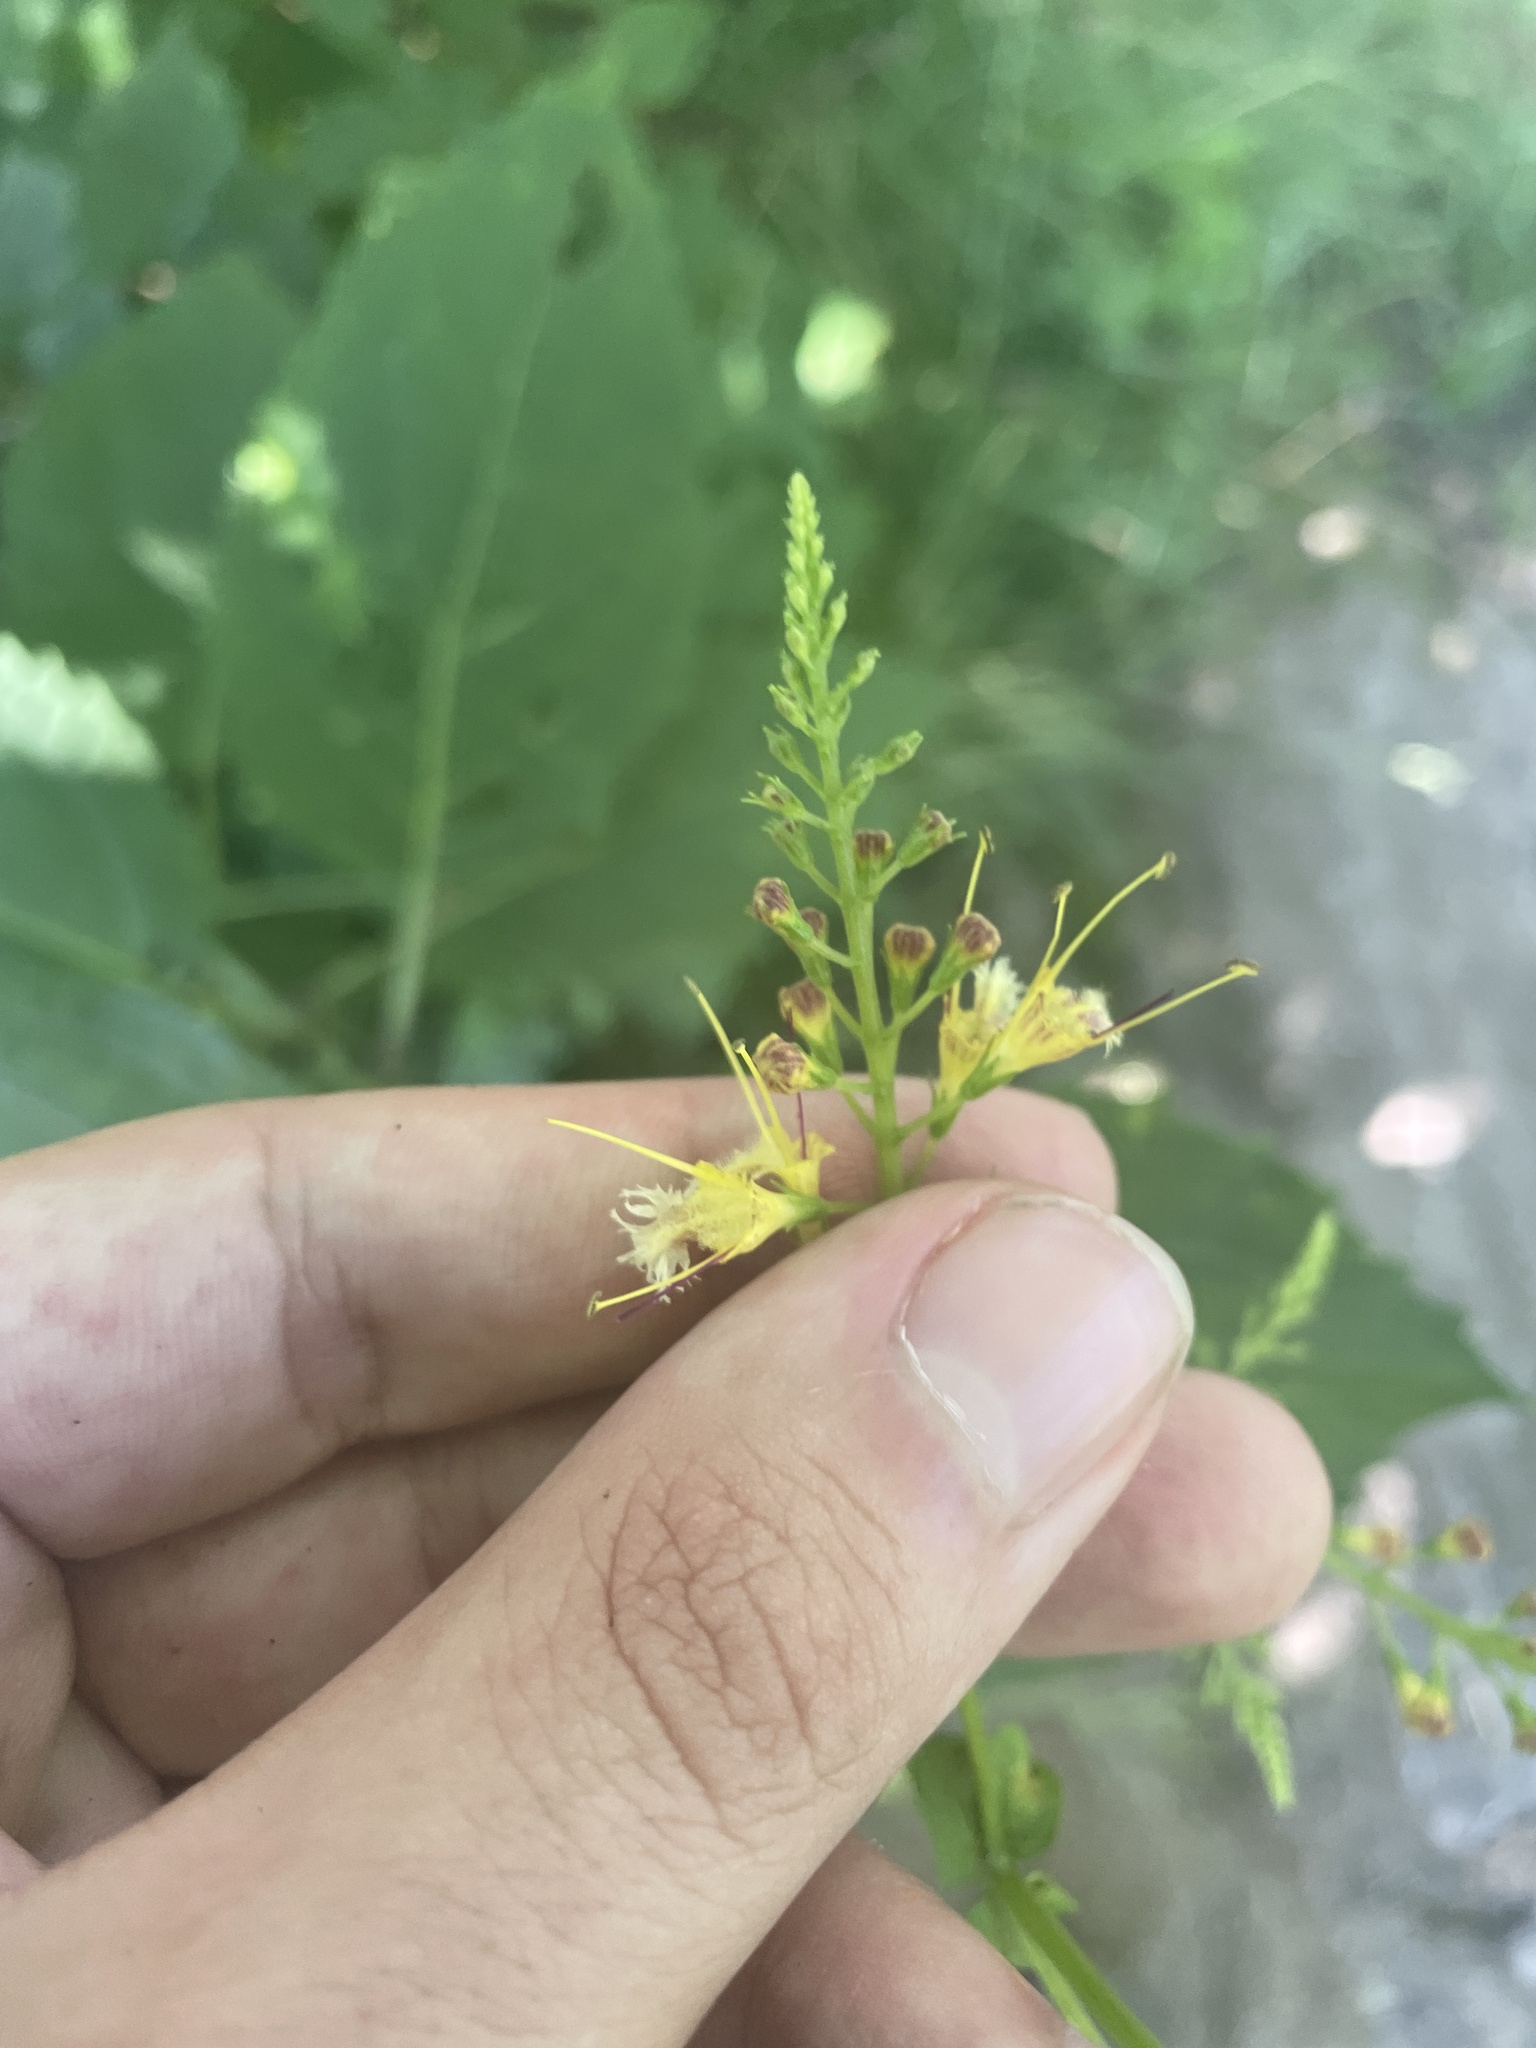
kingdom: Plantae
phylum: Tracheophyta
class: Magnoliopsida
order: Lamiales
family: Lamiaceae
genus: Collinsonia
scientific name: Collinsonia canadensis
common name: Northern horsebalm
